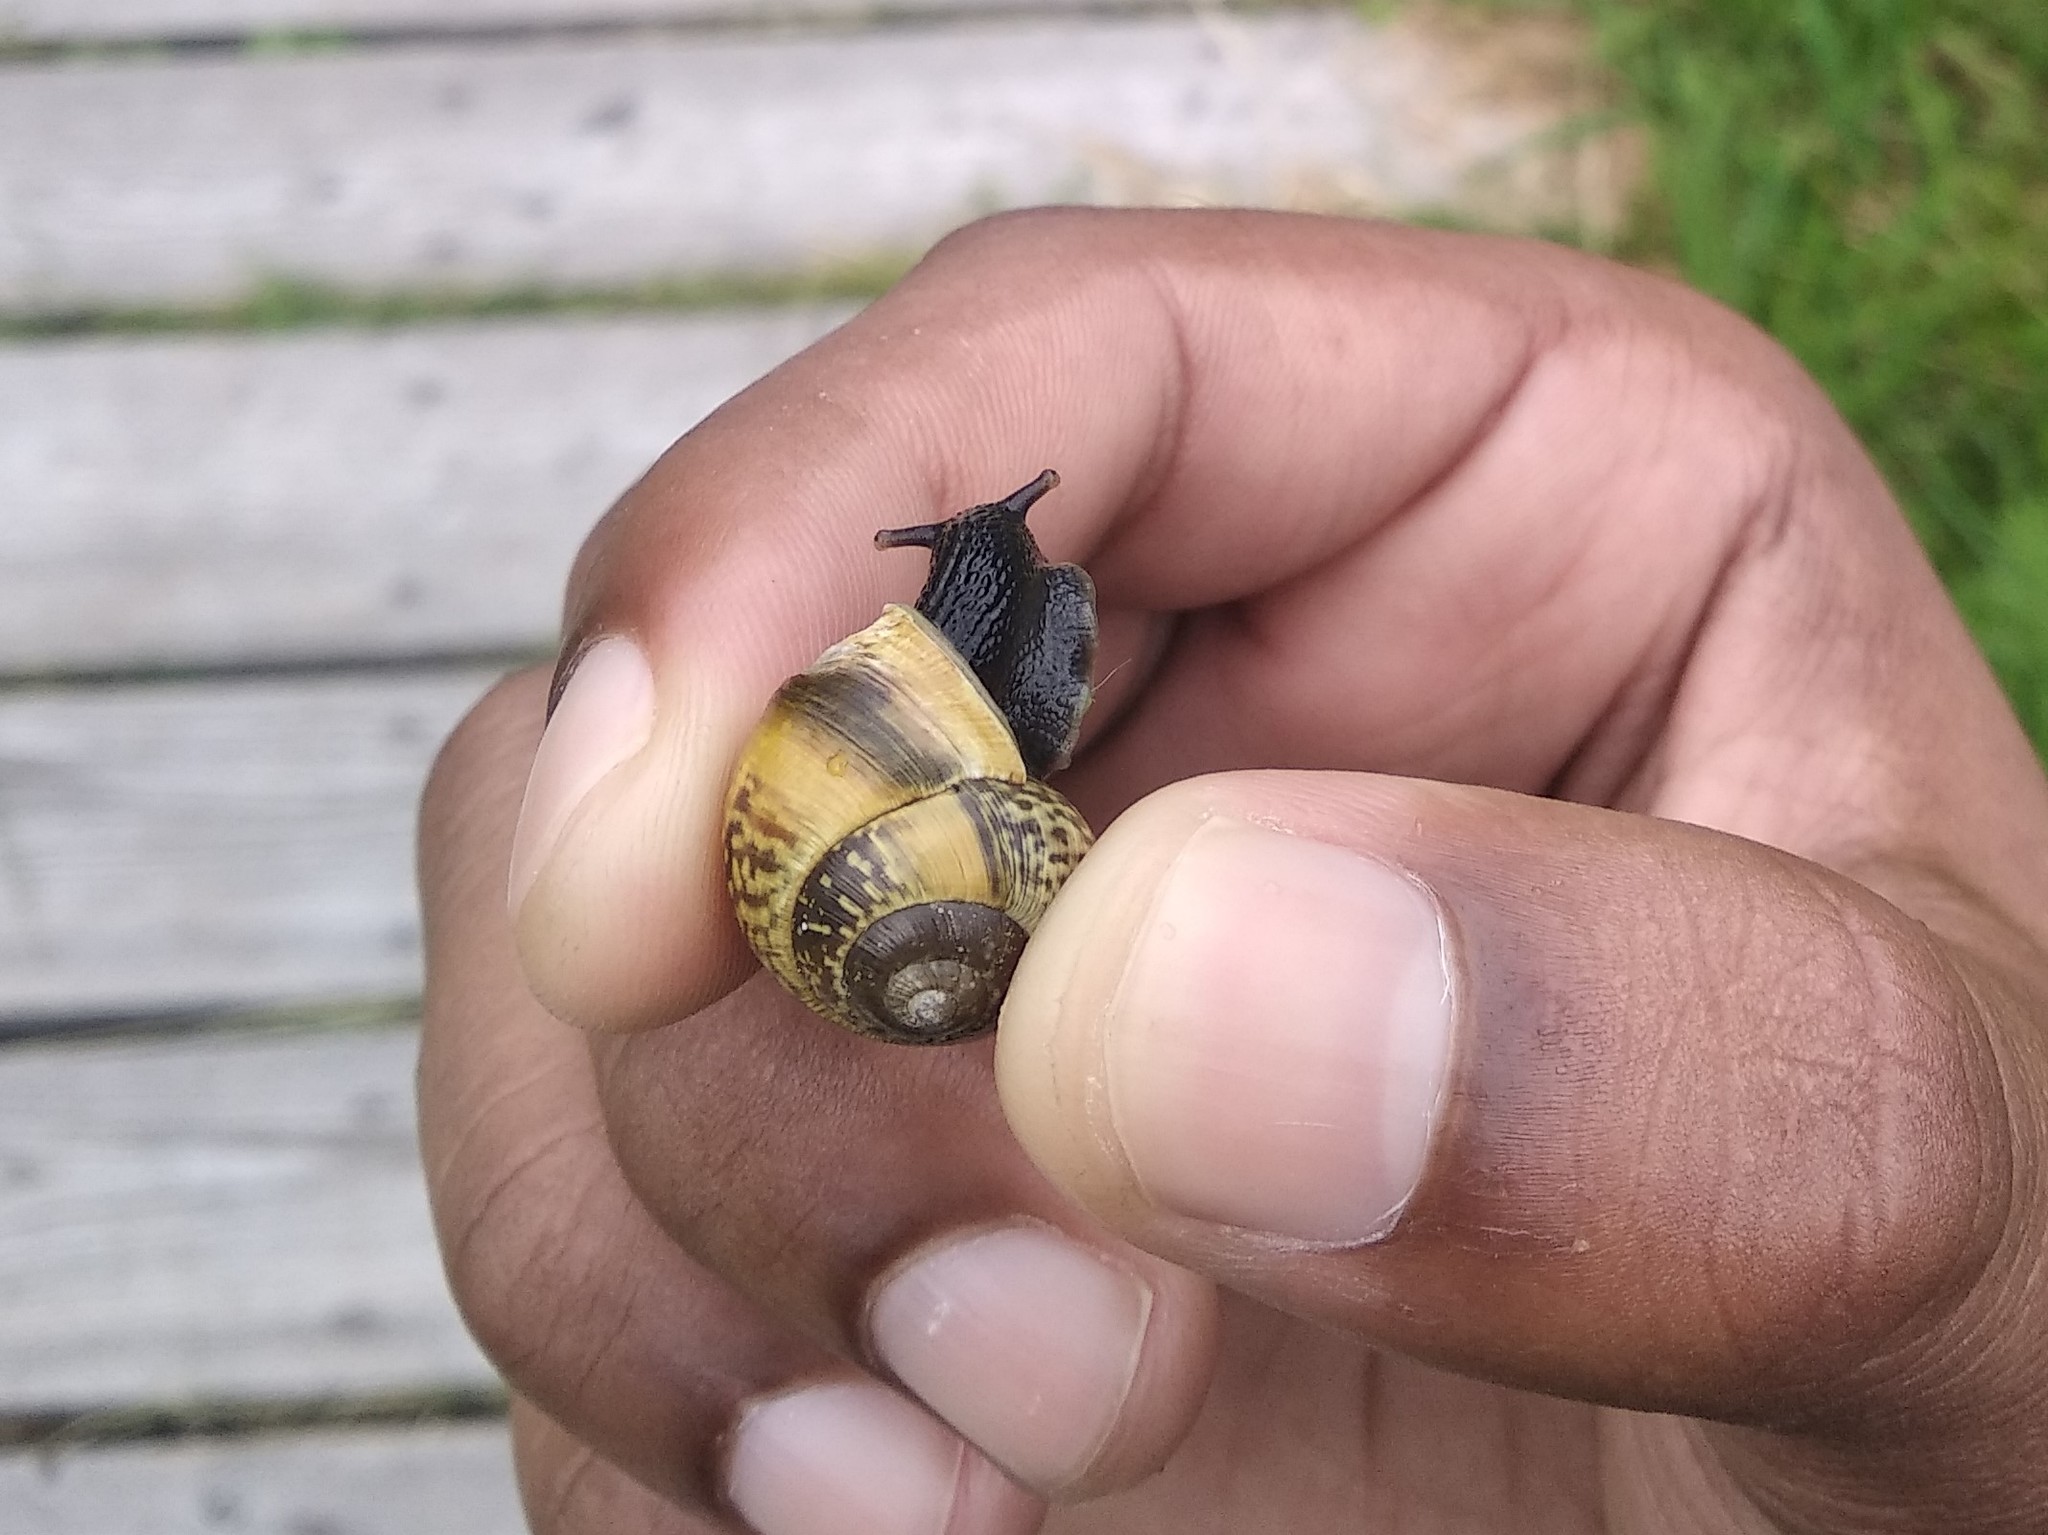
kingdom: Animalia
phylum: Mollusca
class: Gastropoda
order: Stylommatophora
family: Helicidae
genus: Arianta
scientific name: Arianta arbustorum
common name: Copse snail
